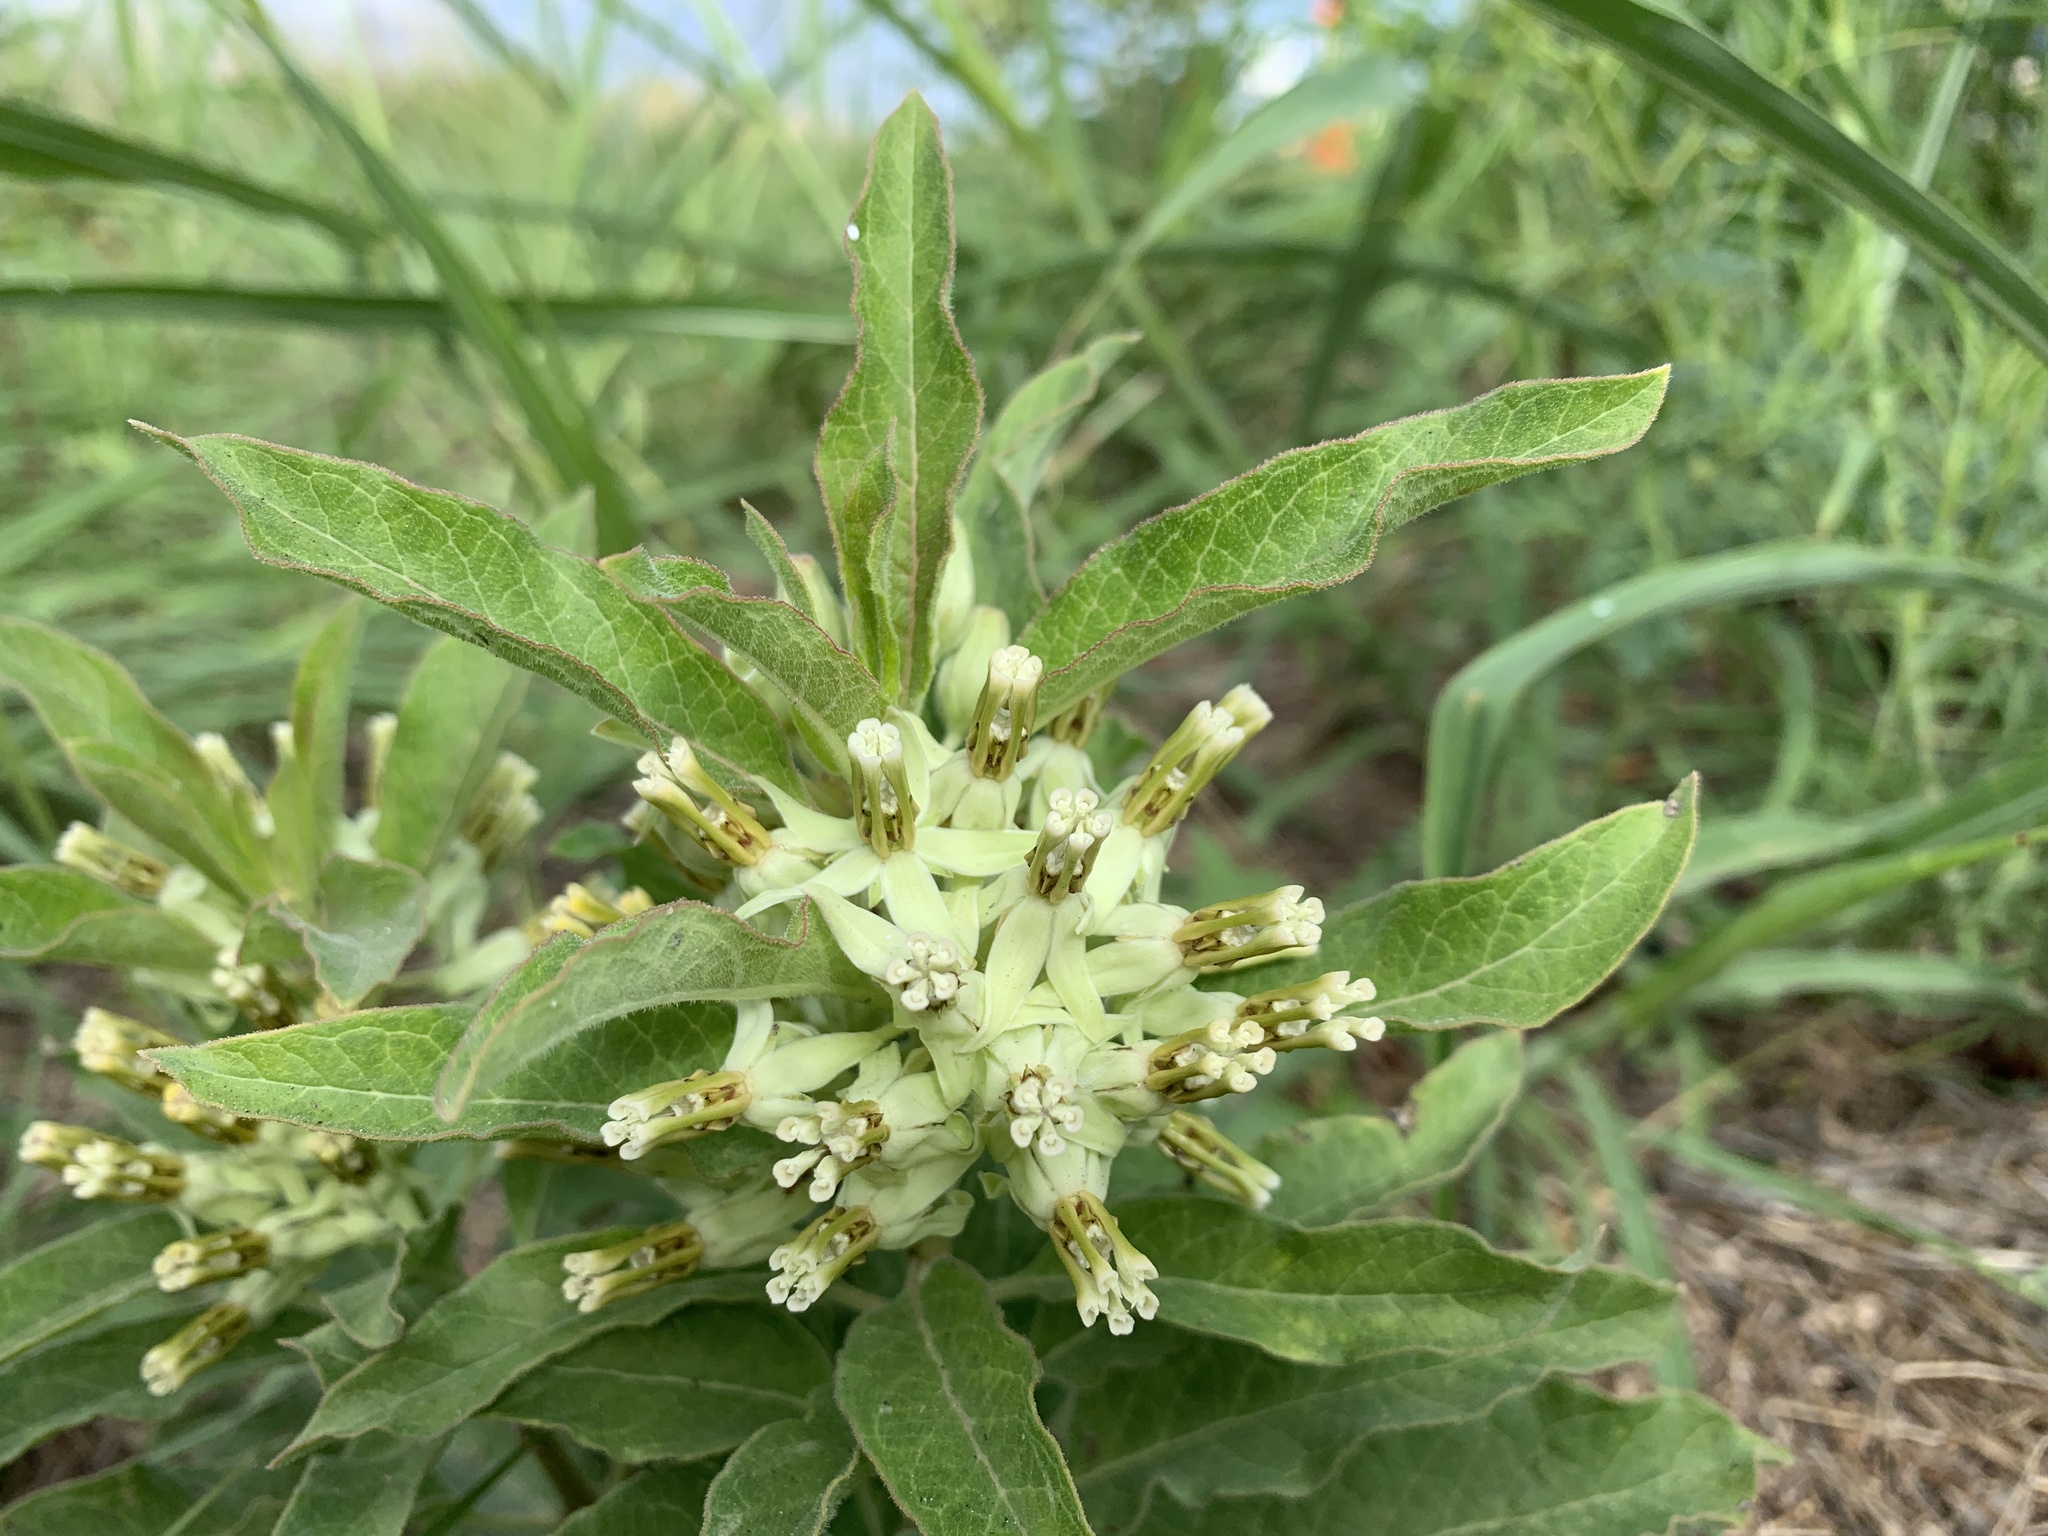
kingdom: Plantae
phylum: Tracheophyta
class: Magnoliopsida
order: Gentianales
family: Apocynaceae
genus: Asclepias
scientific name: Asclepias oenotheroides
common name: Zizotes milkweed
